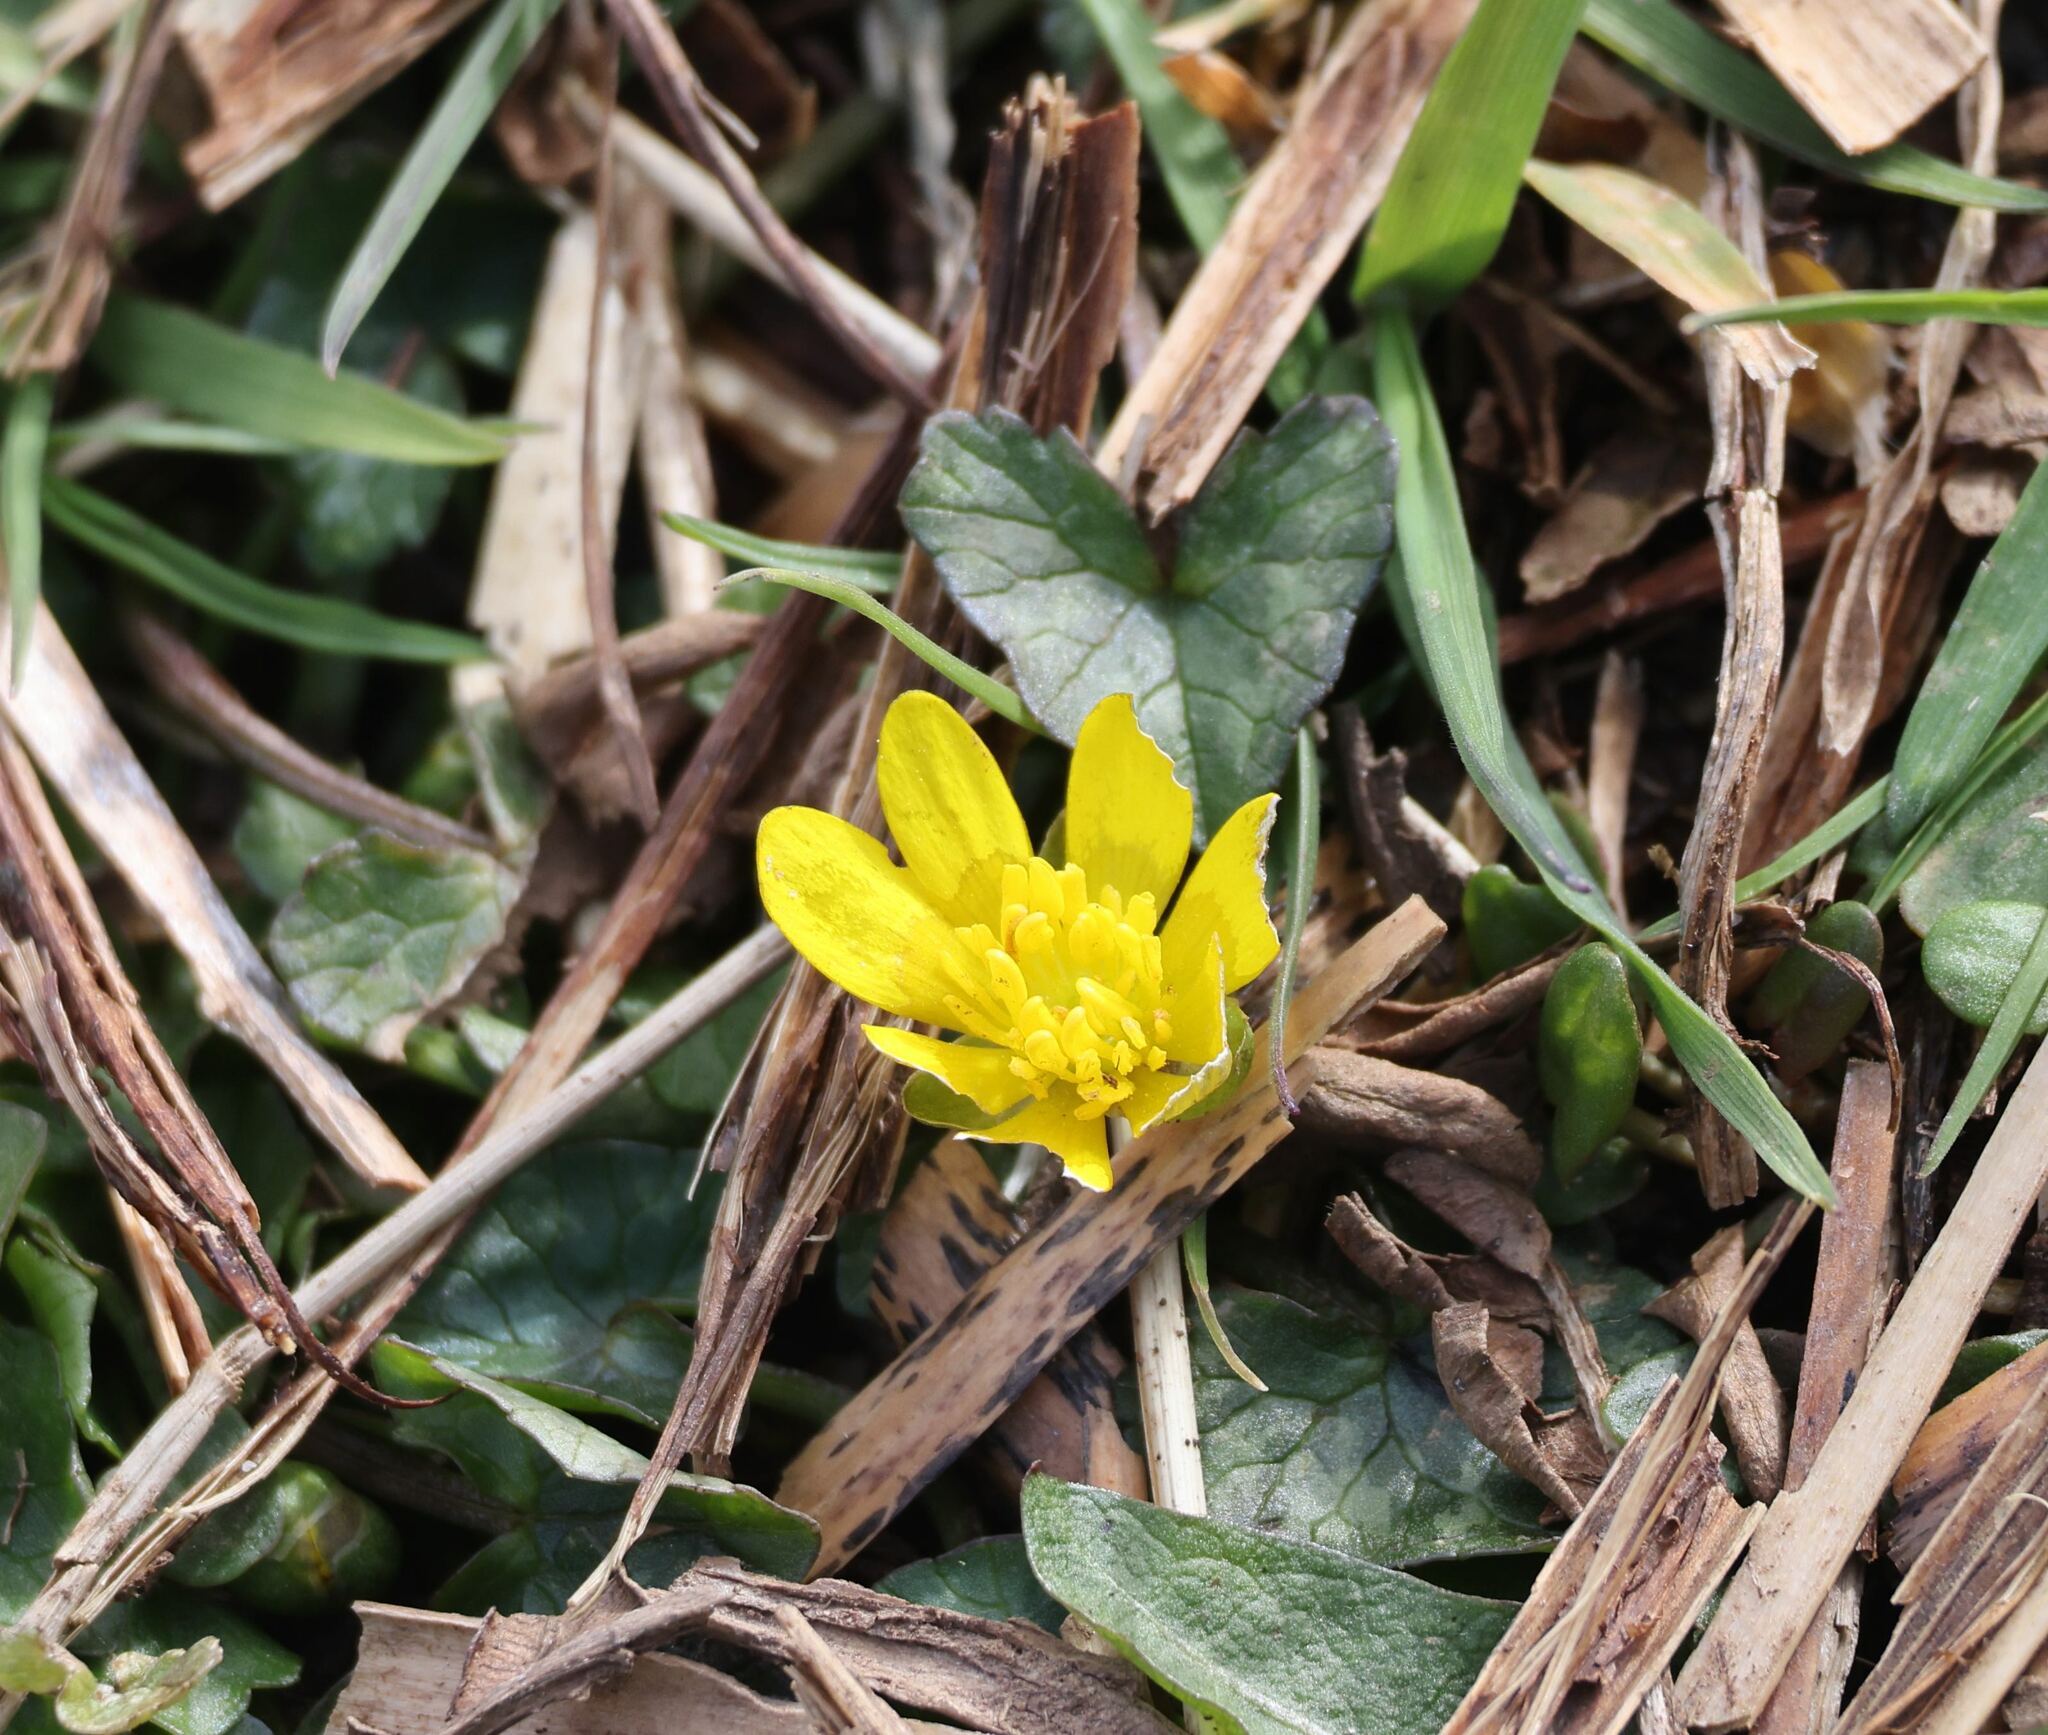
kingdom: Plantae
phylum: Tracheophyta
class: Magnoliopsida
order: Ranunculales
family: Ranunculaceae
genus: Ficaria
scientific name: Ficaria verna
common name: Lesser celandine
